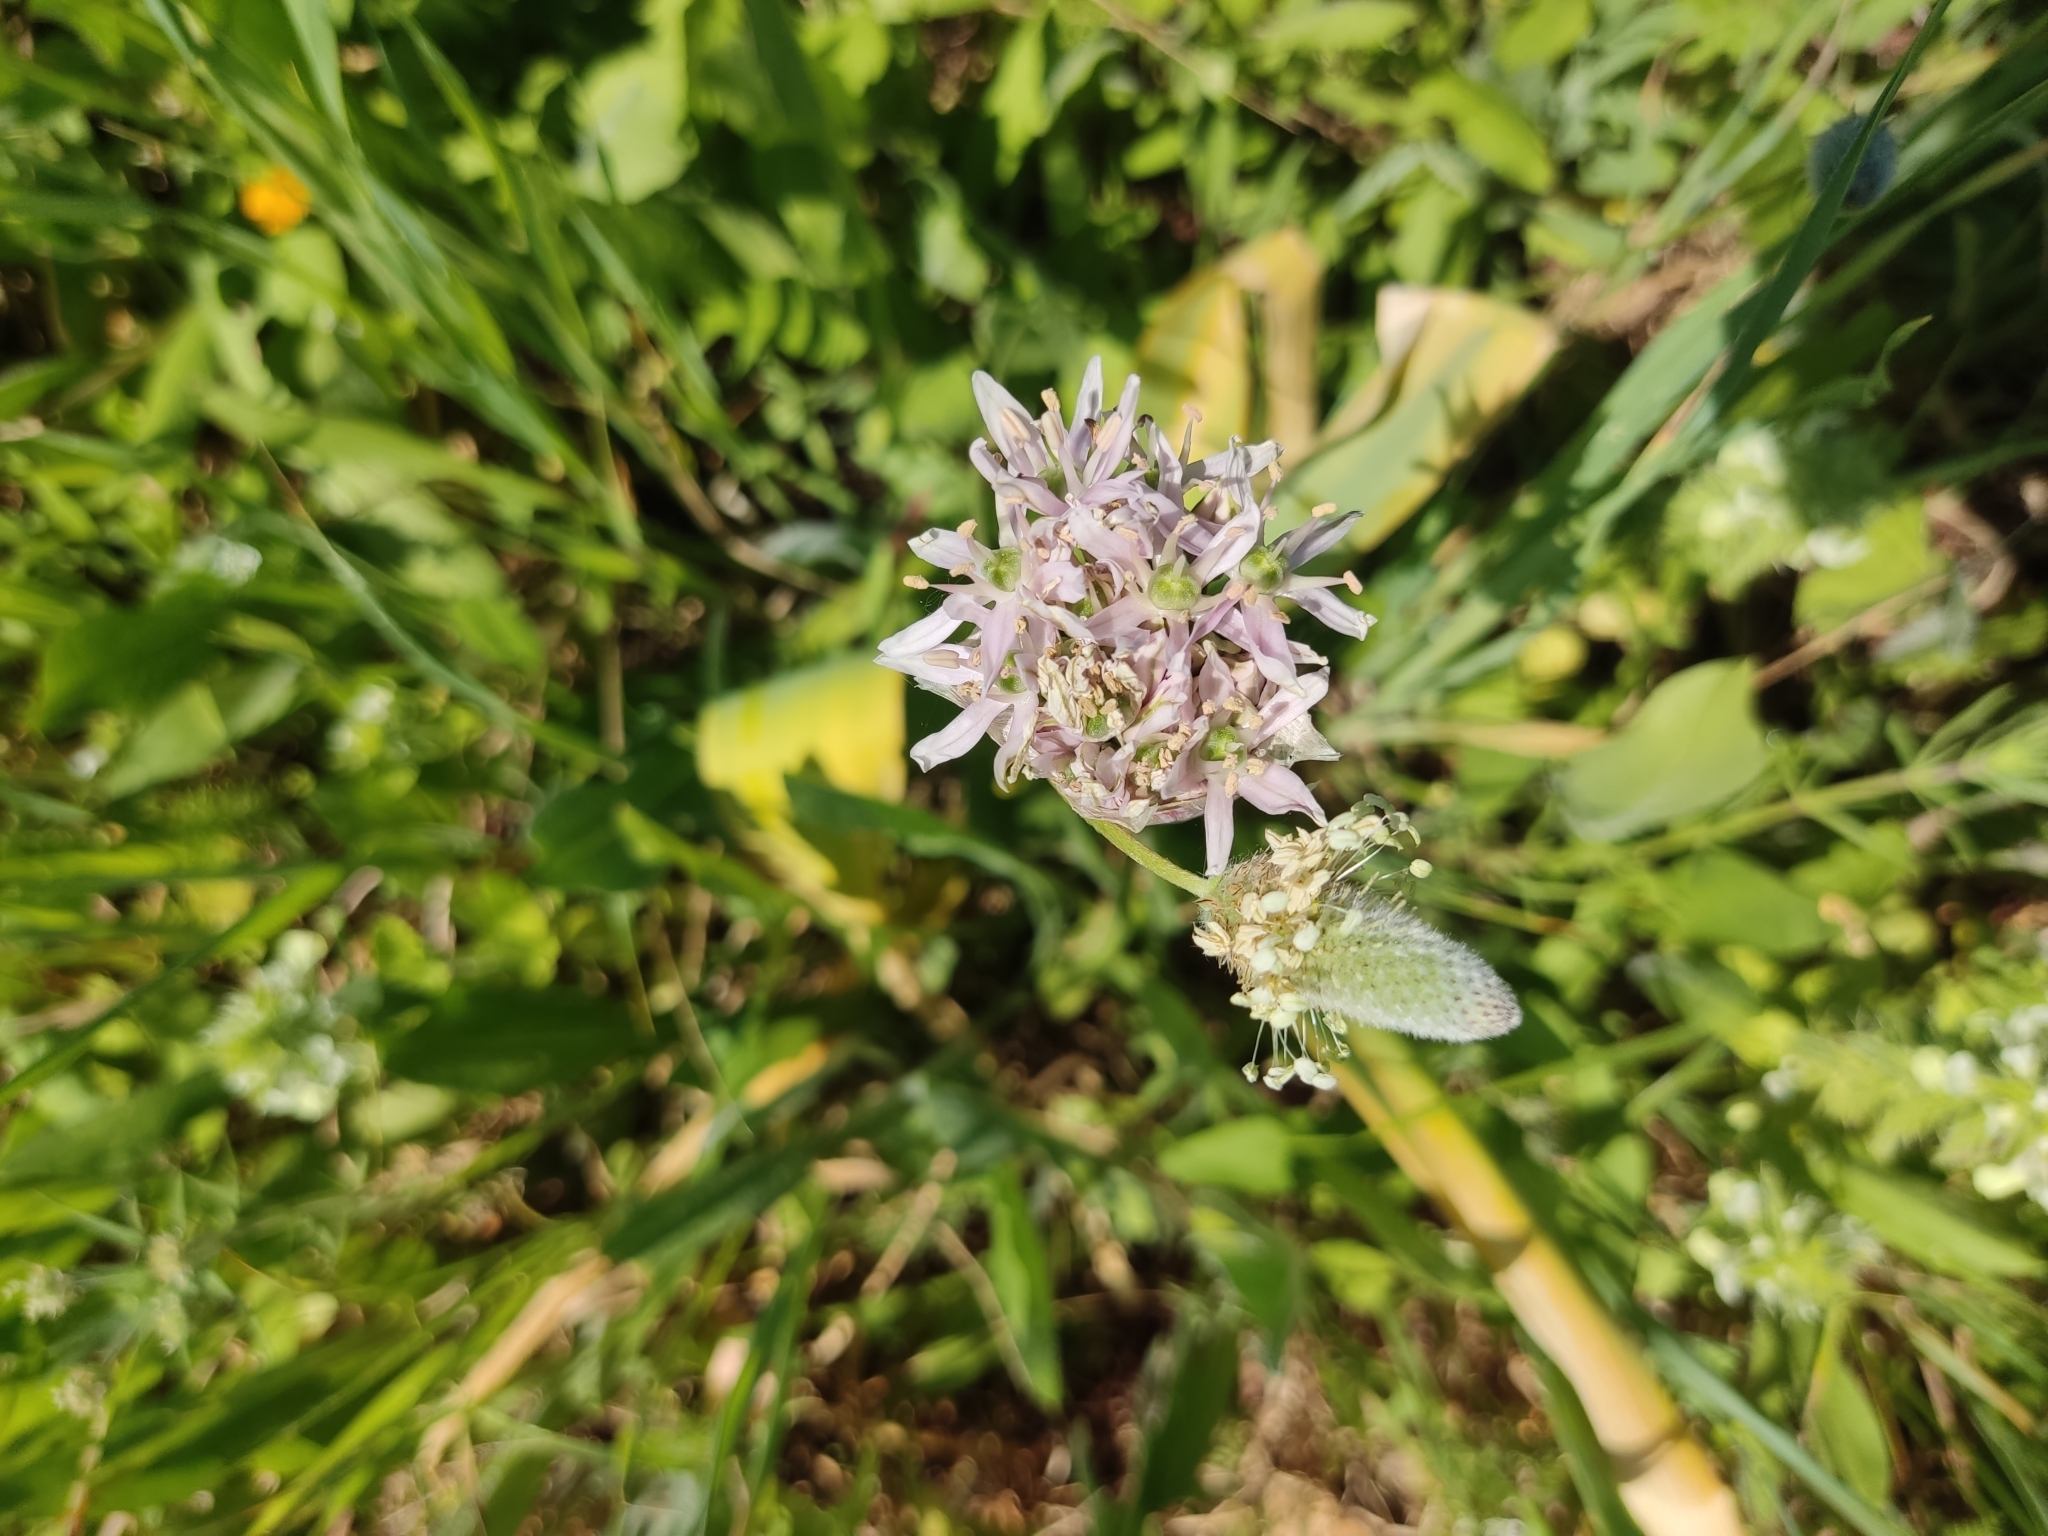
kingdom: Plantae
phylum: Tracheophyta
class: Liliopsida
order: Asparagales
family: Amaryllidaceae
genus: Allium
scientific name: Allium nigrum
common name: Black garlic
